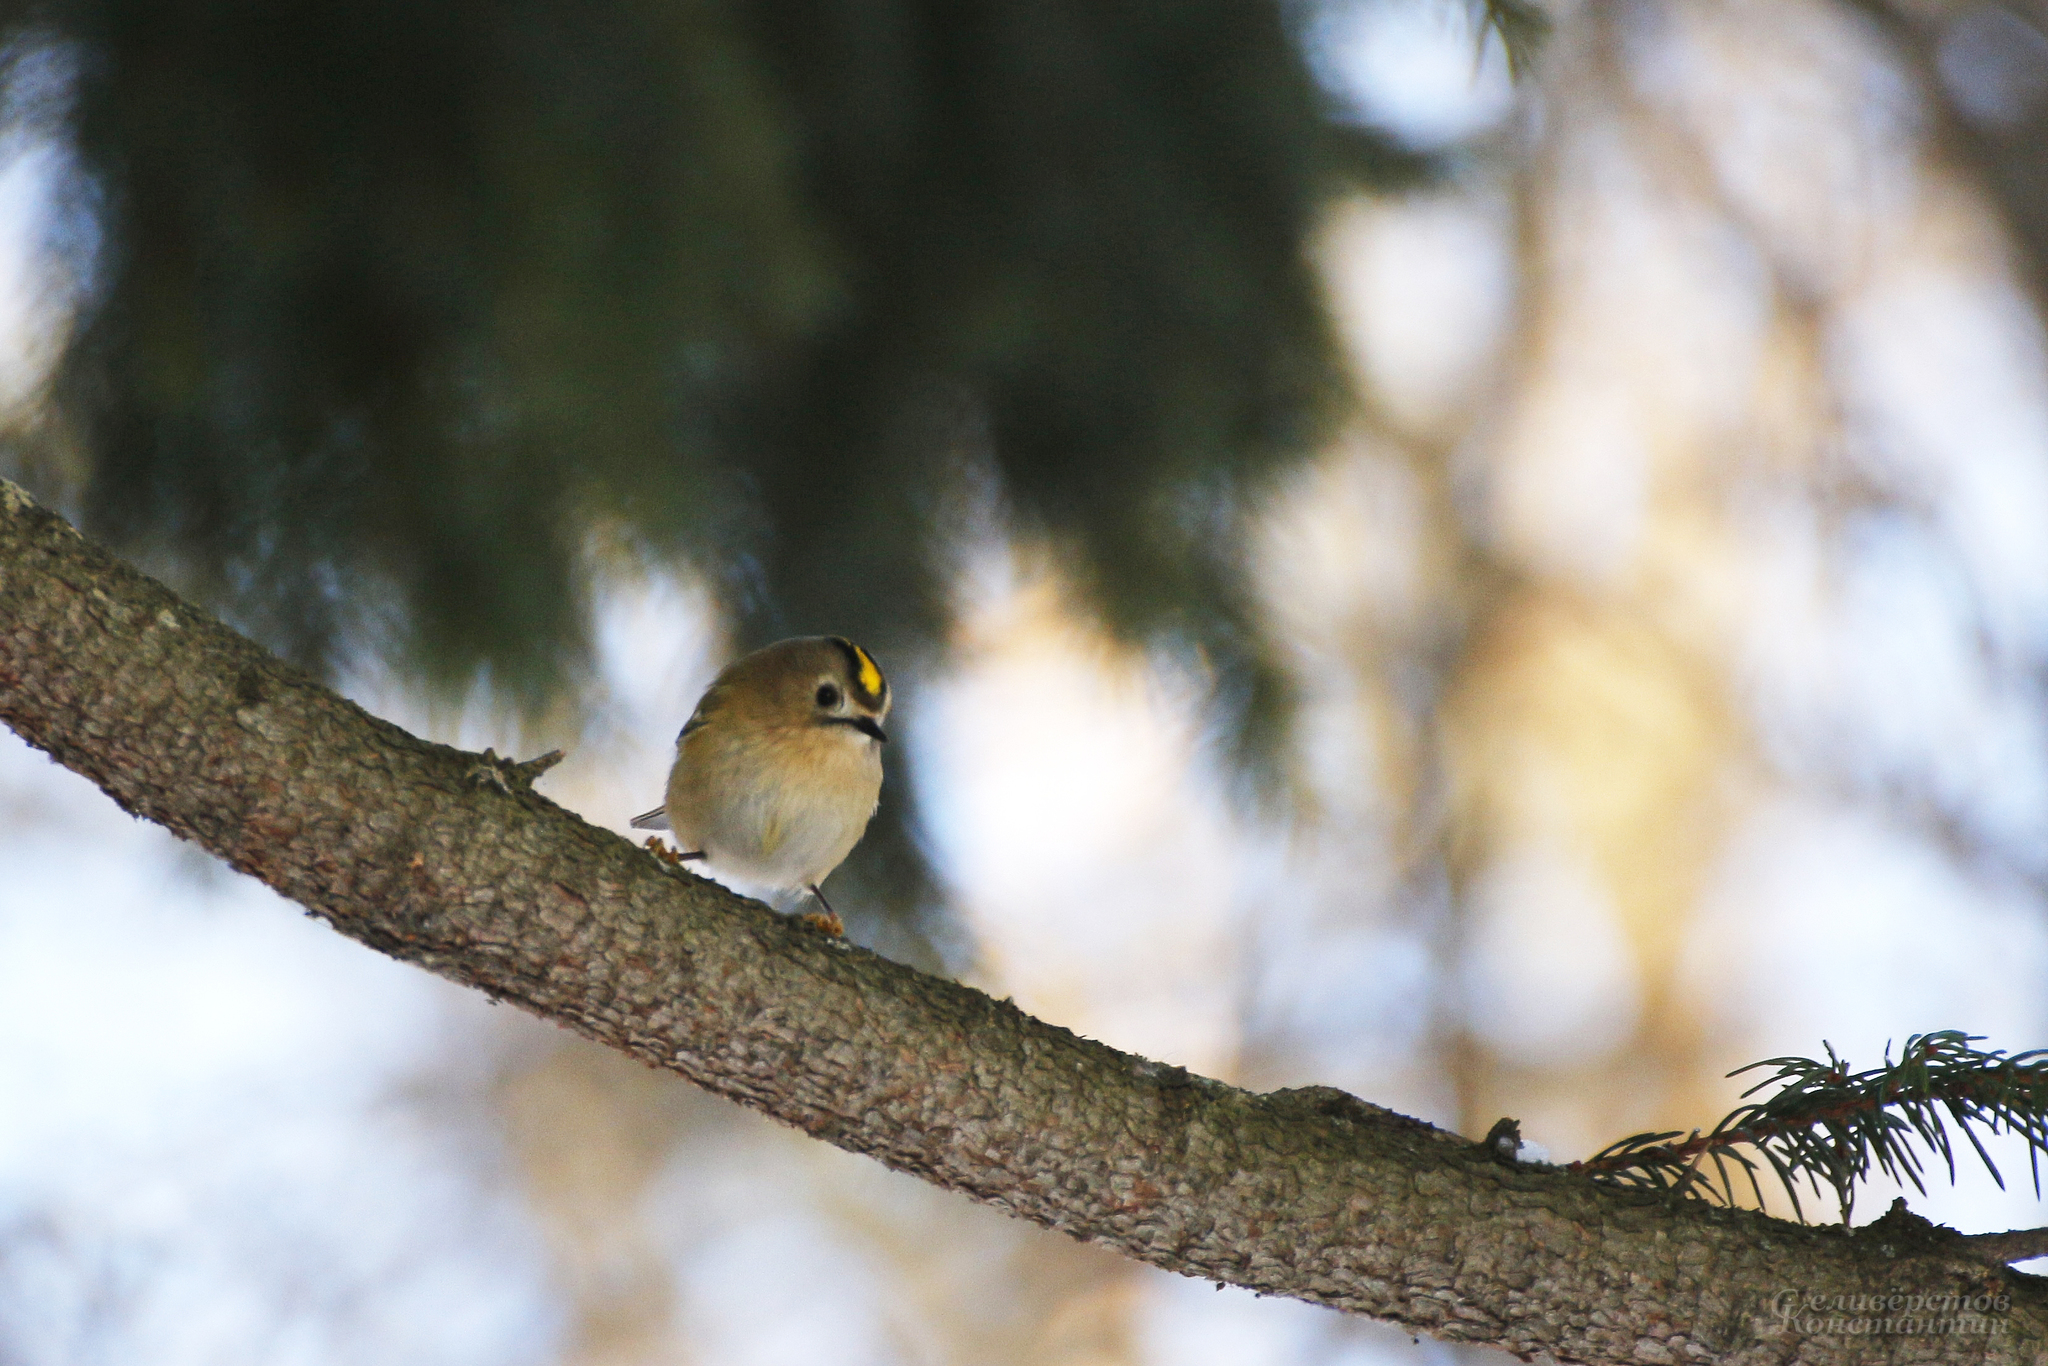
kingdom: Animalia
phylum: Chordata
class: Aves
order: Passeriformes
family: Regulidae
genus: Regulus
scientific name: Regulus regulus
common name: Goldcrest
